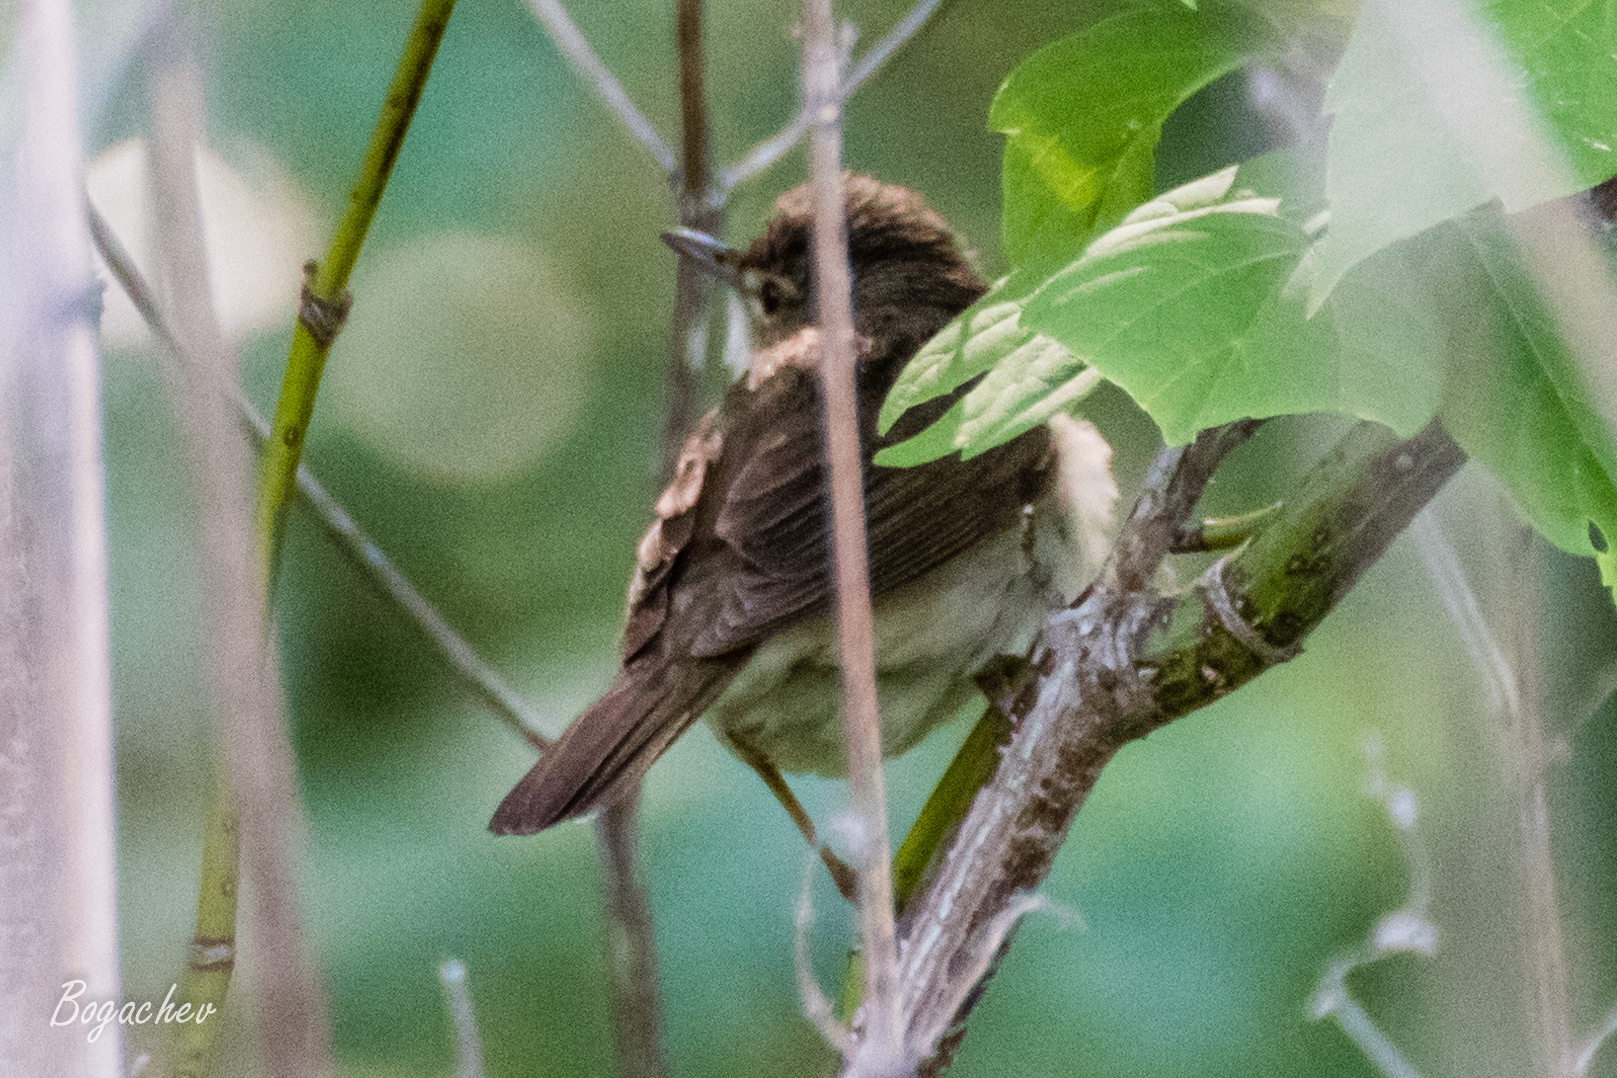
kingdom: Animalia
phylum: Chordata
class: Aves
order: Passeriformes
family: Acrocephalidae
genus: Acrocephalus
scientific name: Acrocephalus dumetorum
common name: Blyth's reed warbler
